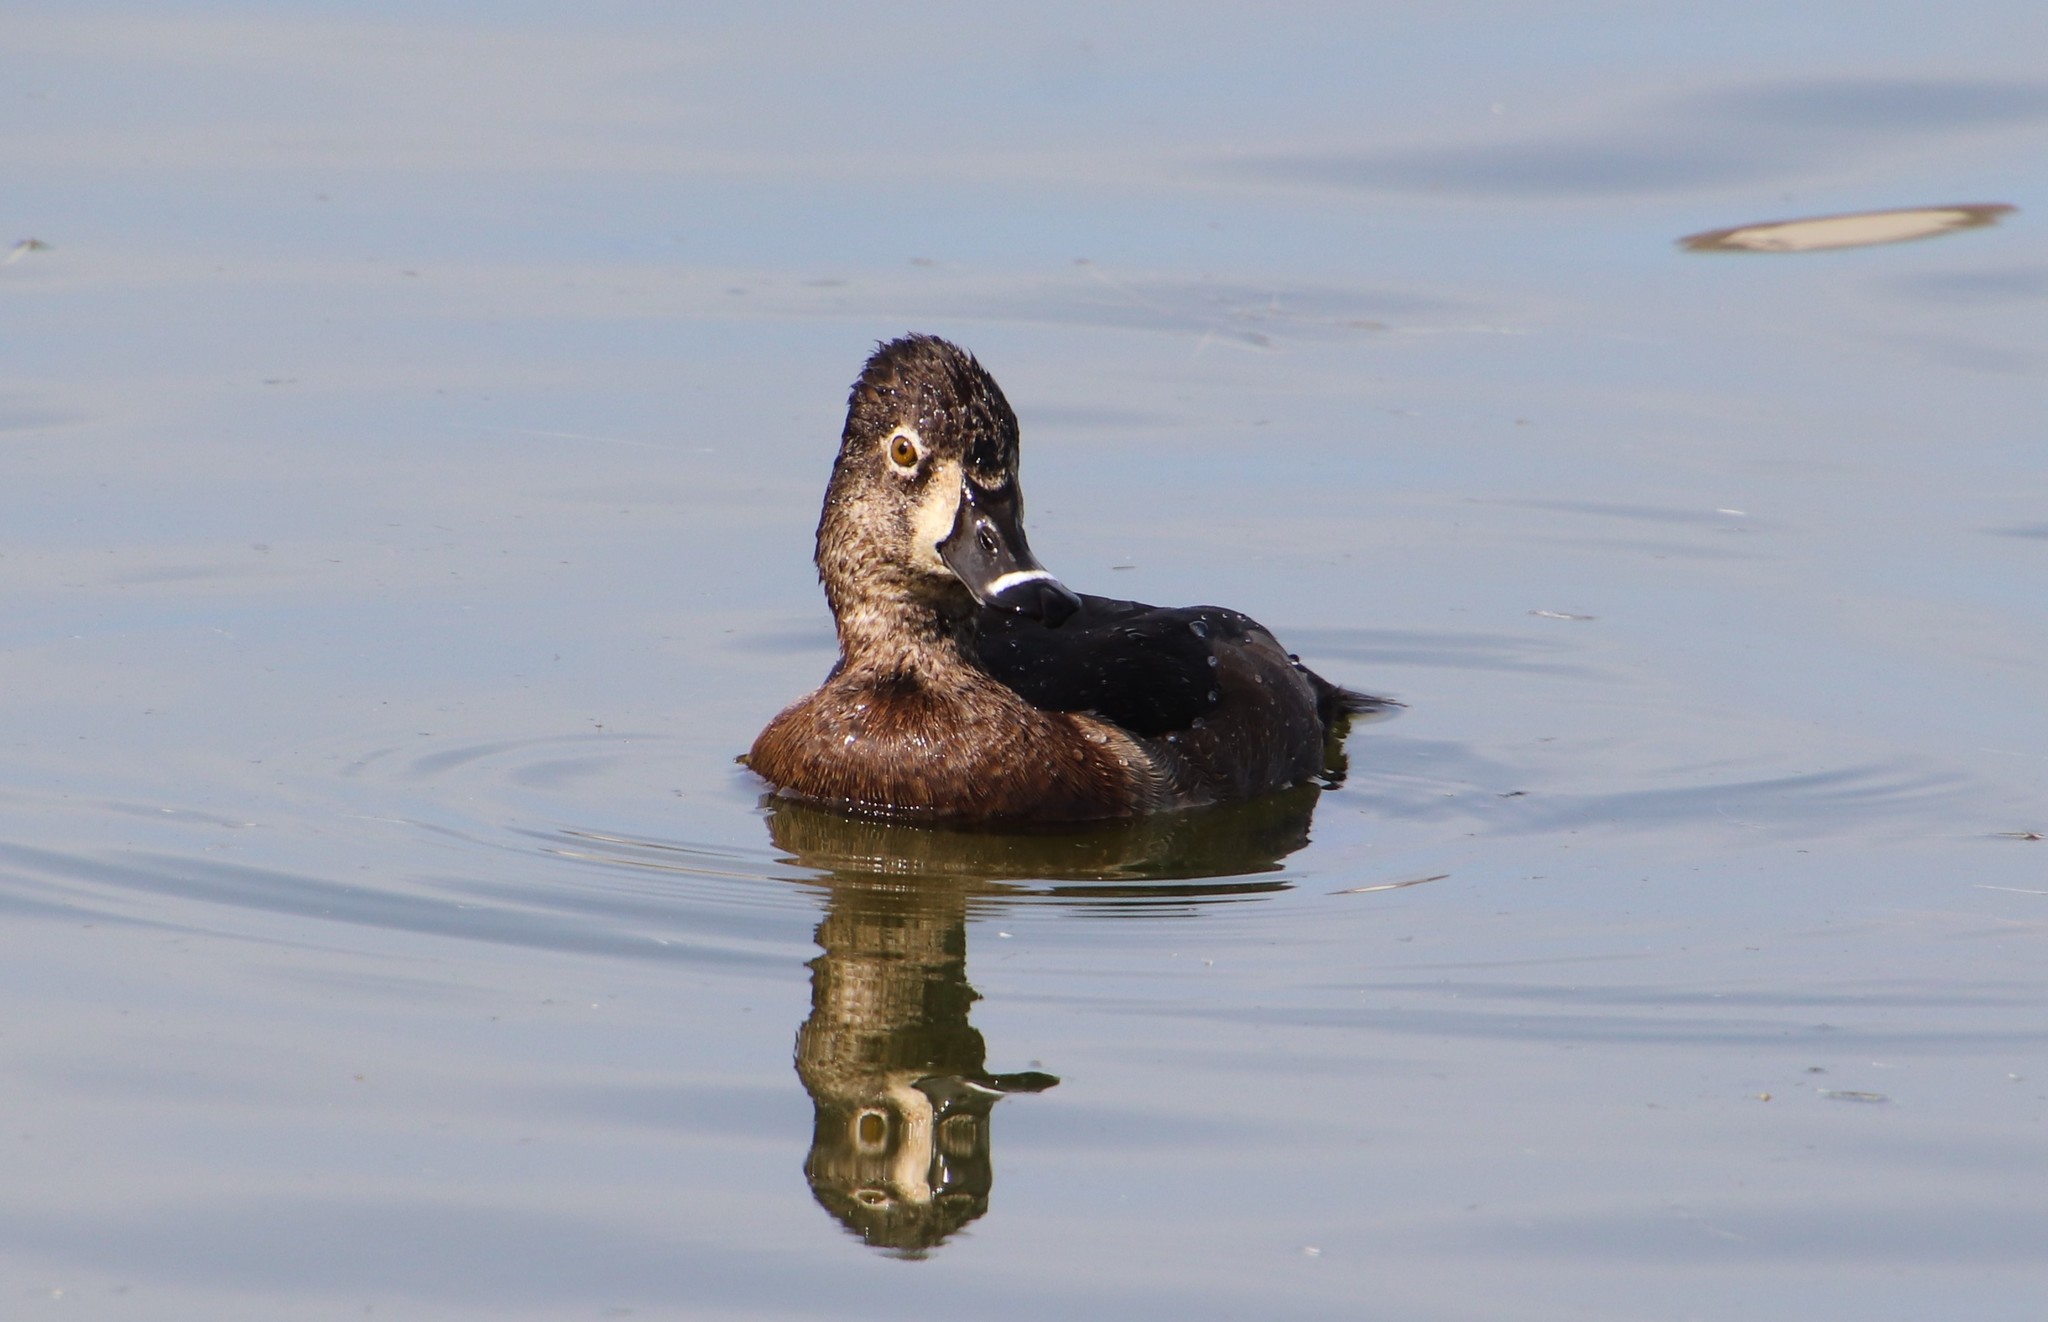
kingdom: Animalia
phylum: Chordata
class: Aves
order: Anseriformes
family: Anatidae
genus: Aythya
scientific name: Aythya collaris
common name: Ring-necked duck
